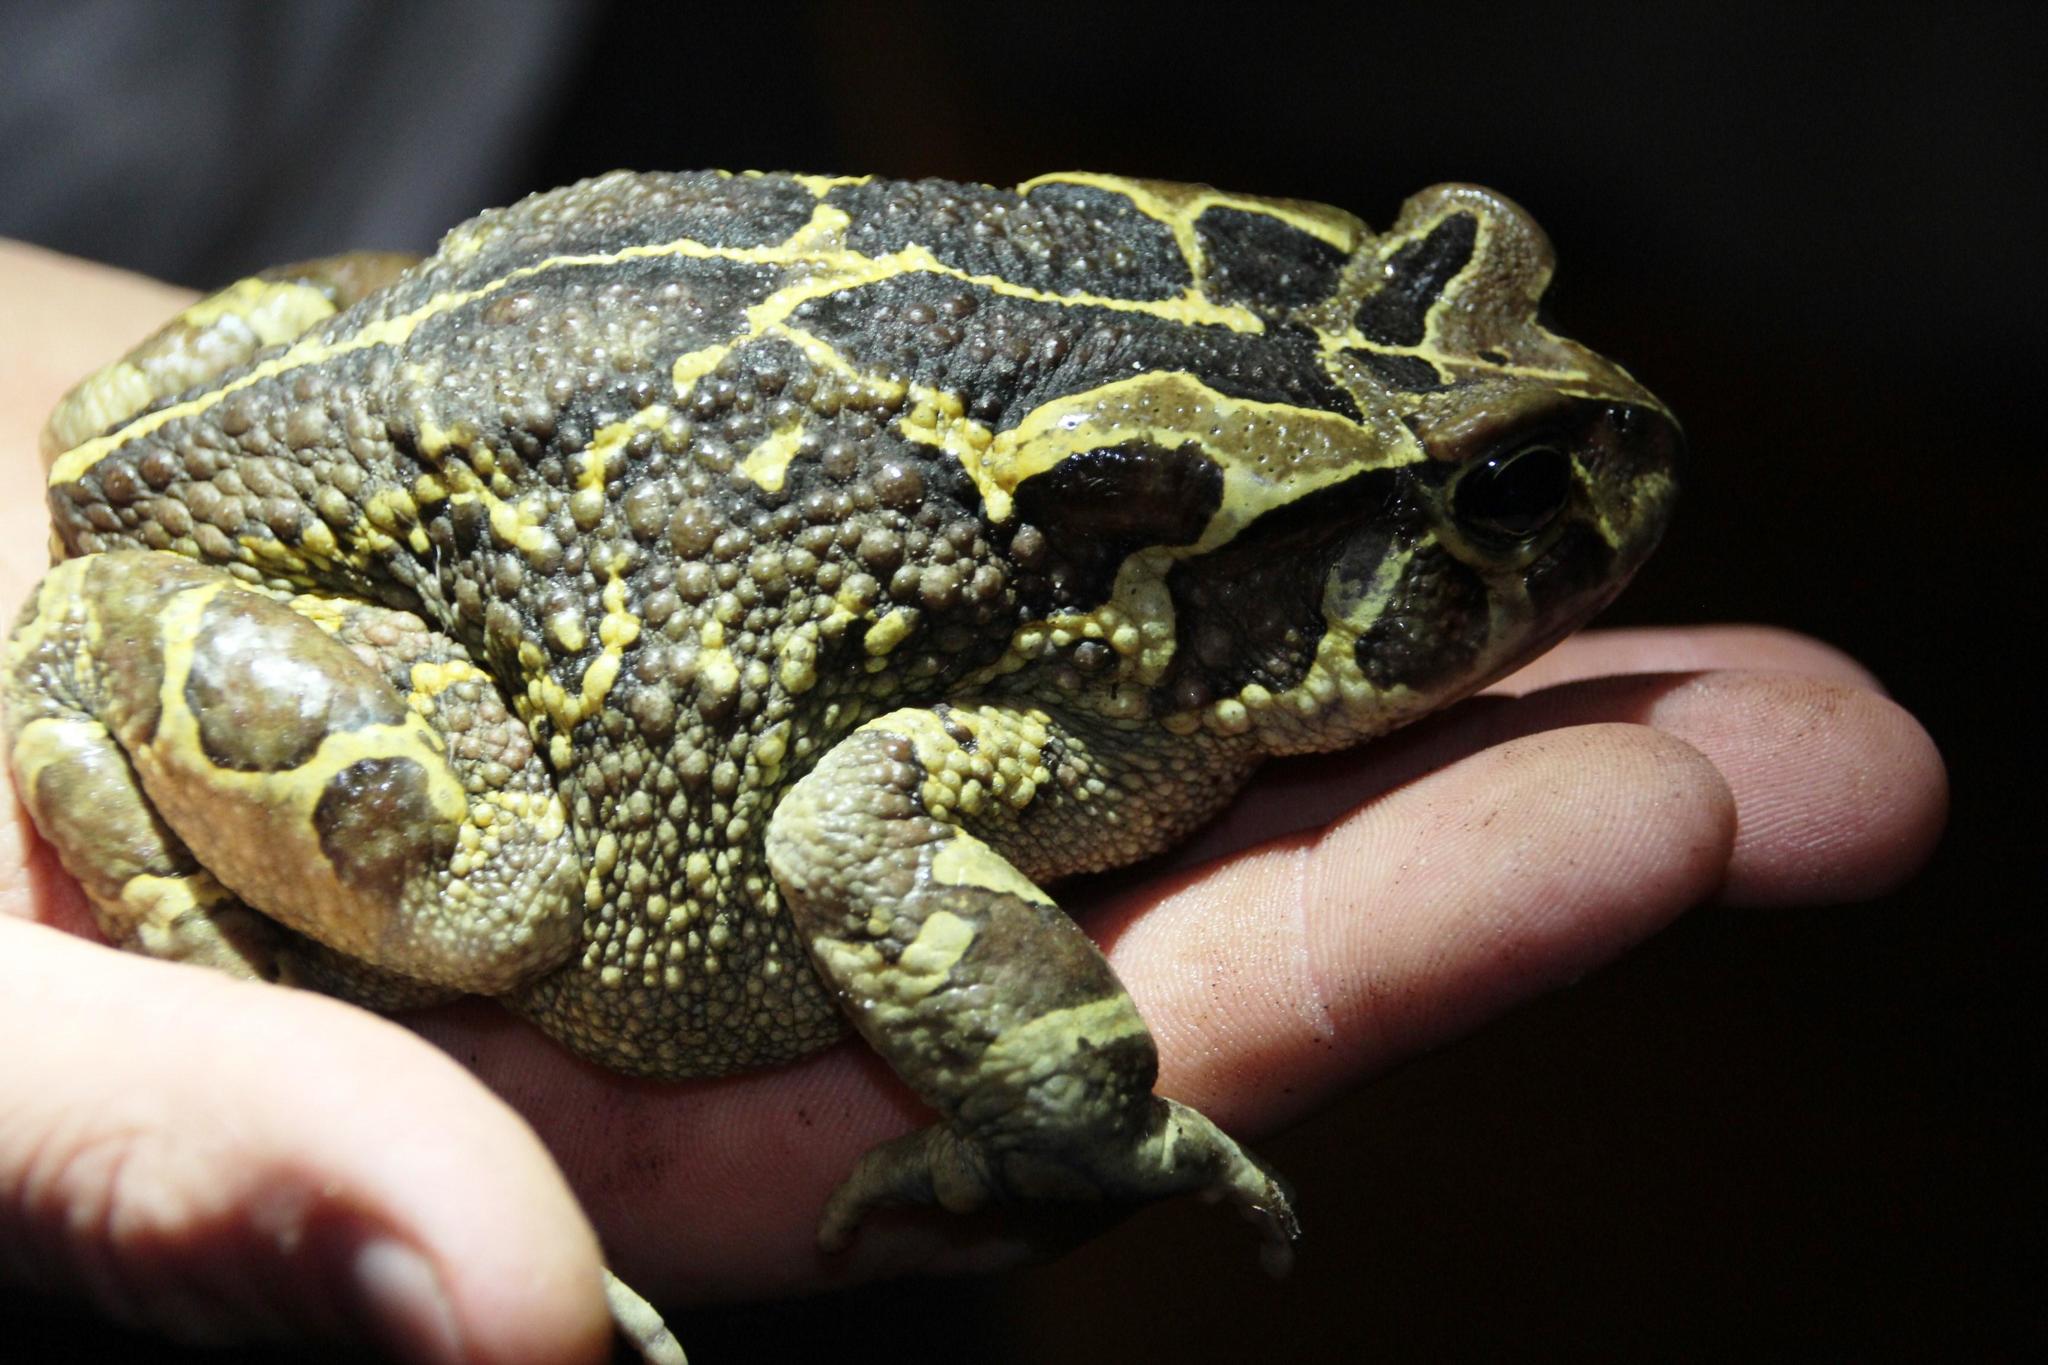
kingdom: Animalia
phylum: Chordata
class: Amphibia
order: Anura
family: Bufonidae
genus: Sclerophrys
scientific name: Sclerophrys pantherina
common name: Panther toad
